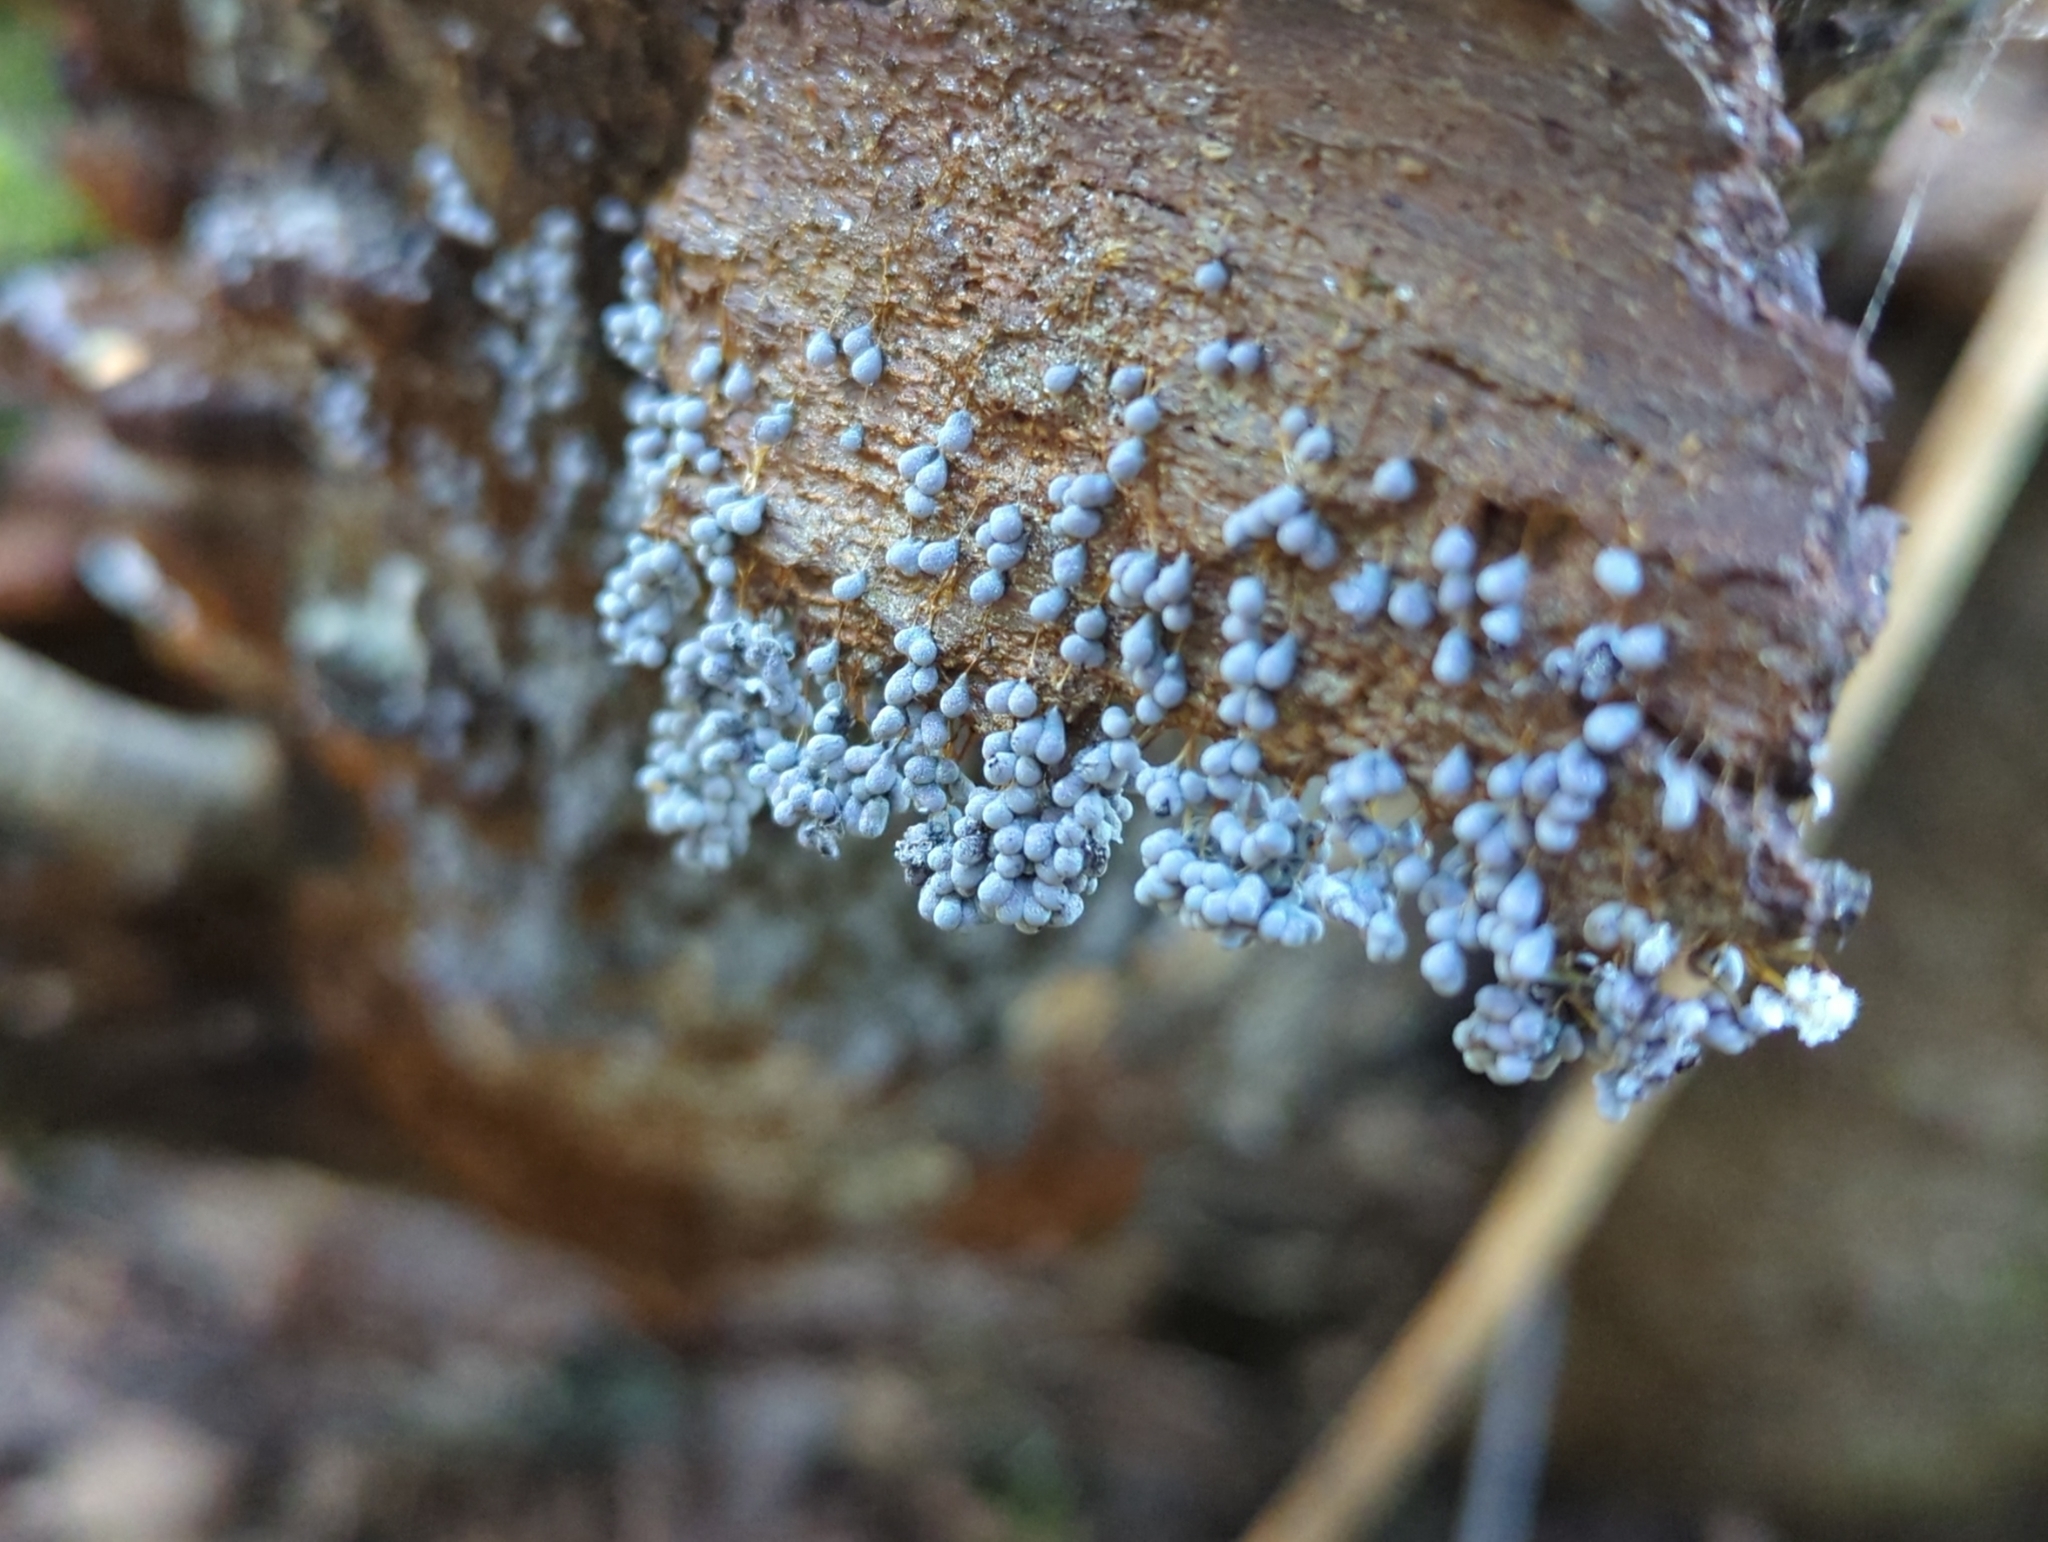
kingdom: Protozoa
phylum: Mycetozoa
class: Myxomycetes
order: Physarales
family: Physaraceae
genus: Badhamia
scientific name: Badhamia utricularis
